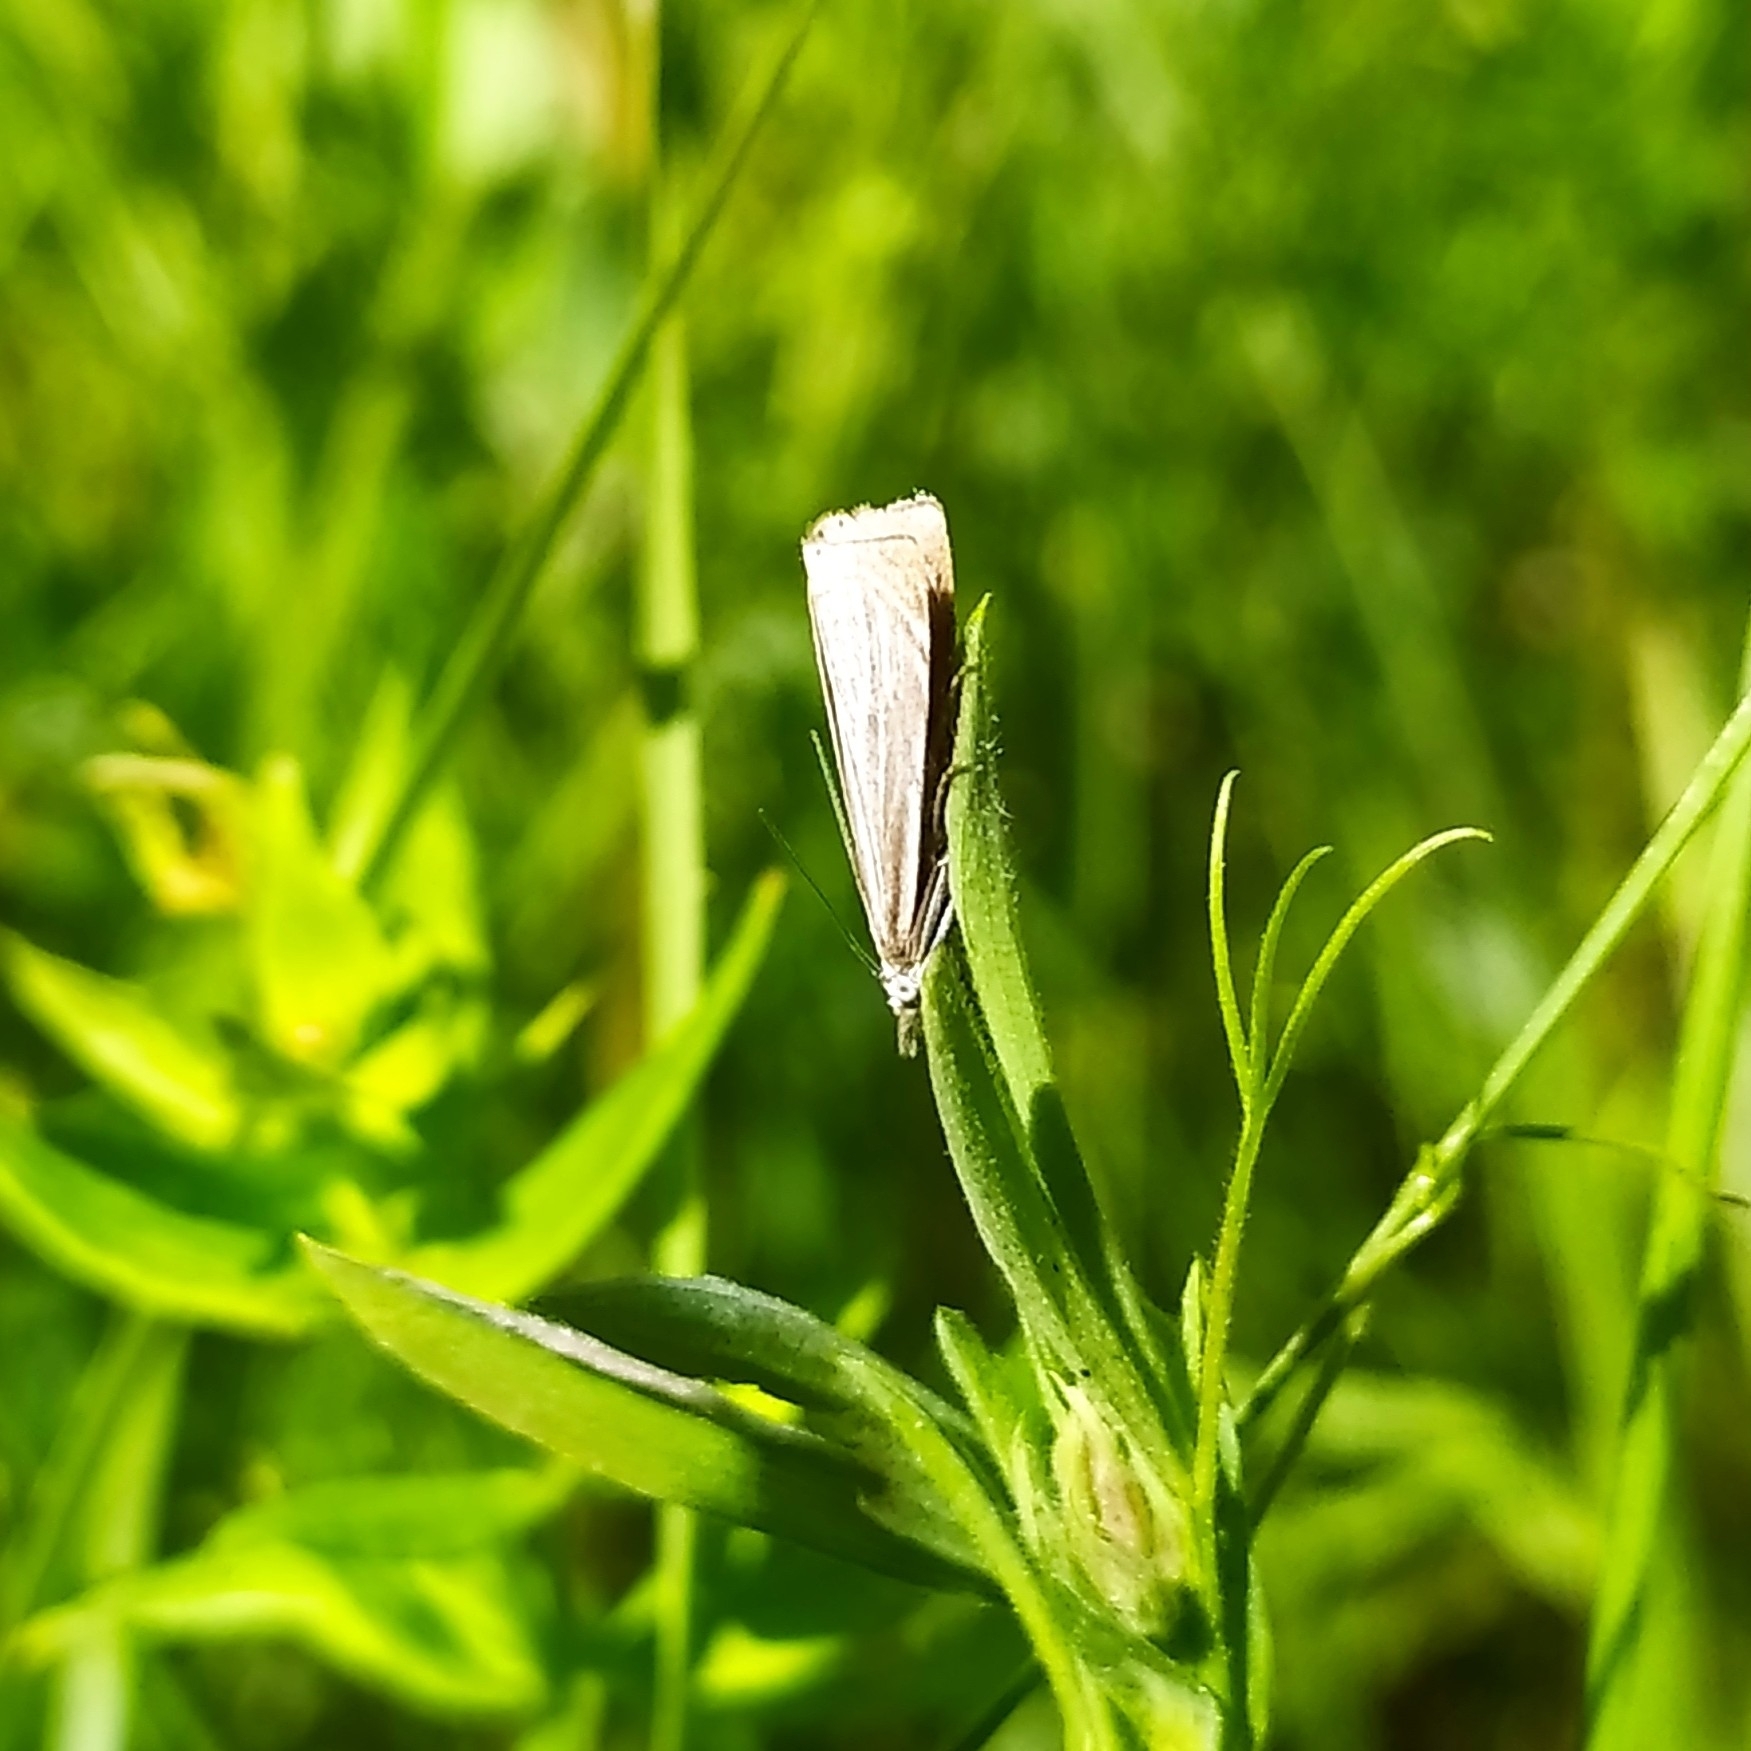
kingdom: Animalia
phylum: Arthropoda
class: Insecta
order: Lepidoptera
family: Crambidae
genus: Chrysoteuchia
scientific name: Chrysoteuchia culmella
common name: Garden grass-veneer
